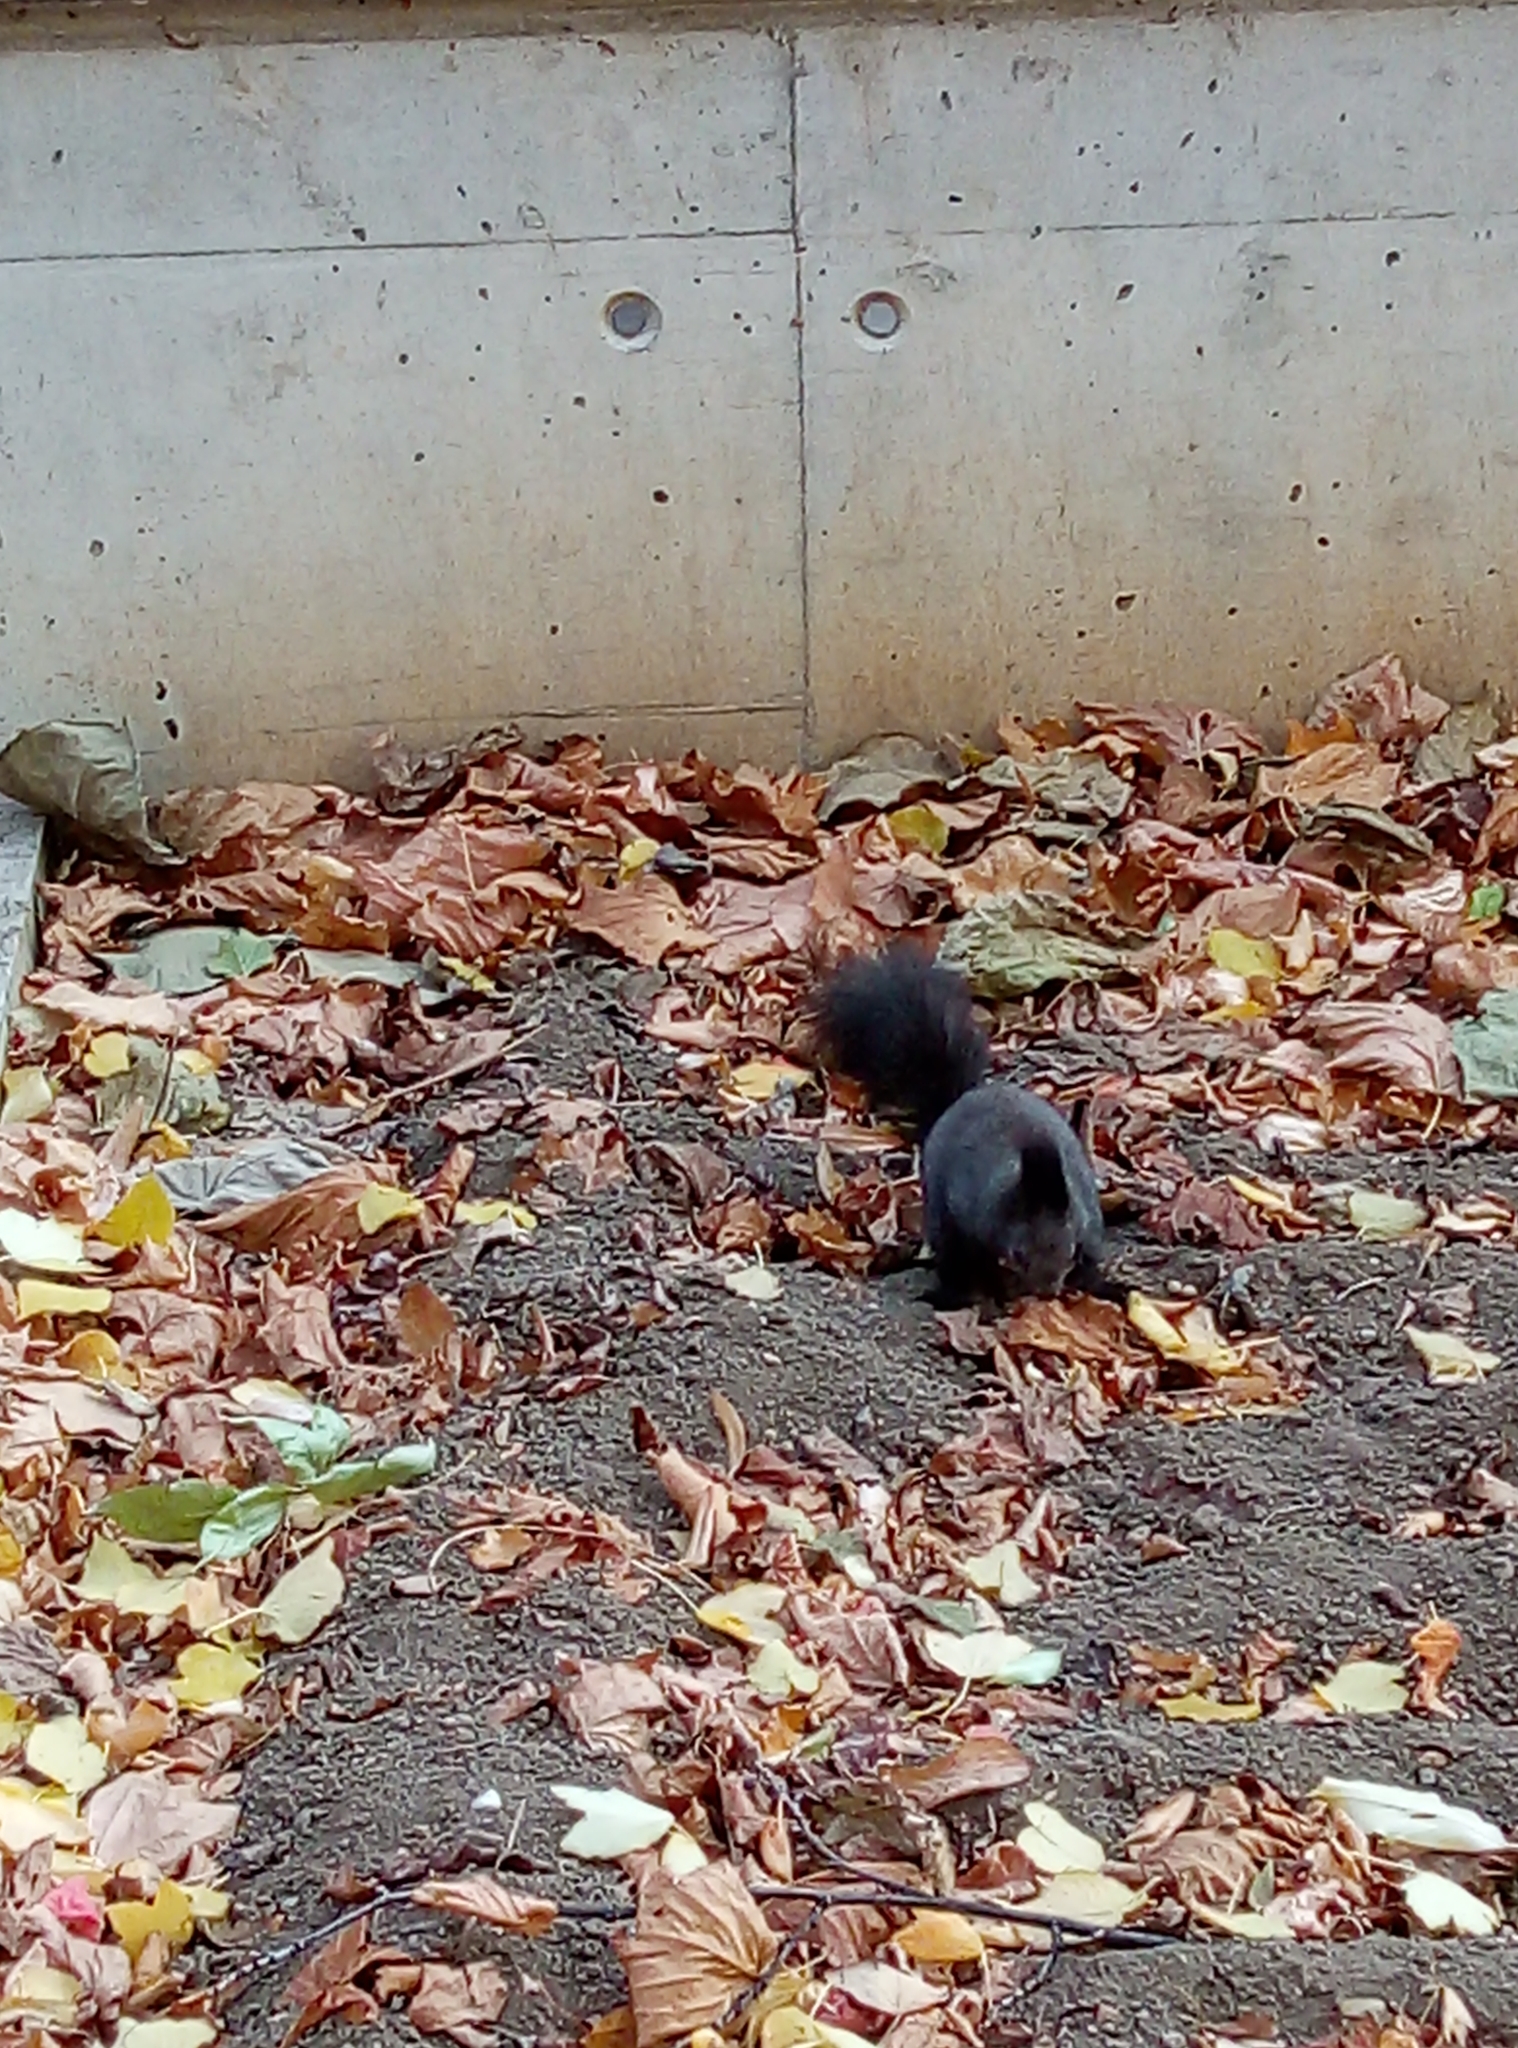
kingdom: Animalia
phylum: Chordata
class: Mammalia
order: Rodentia
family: Sciuridae
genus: Sciurus
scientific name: Sciurus vulgaris
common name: Eurasian red squirrel
